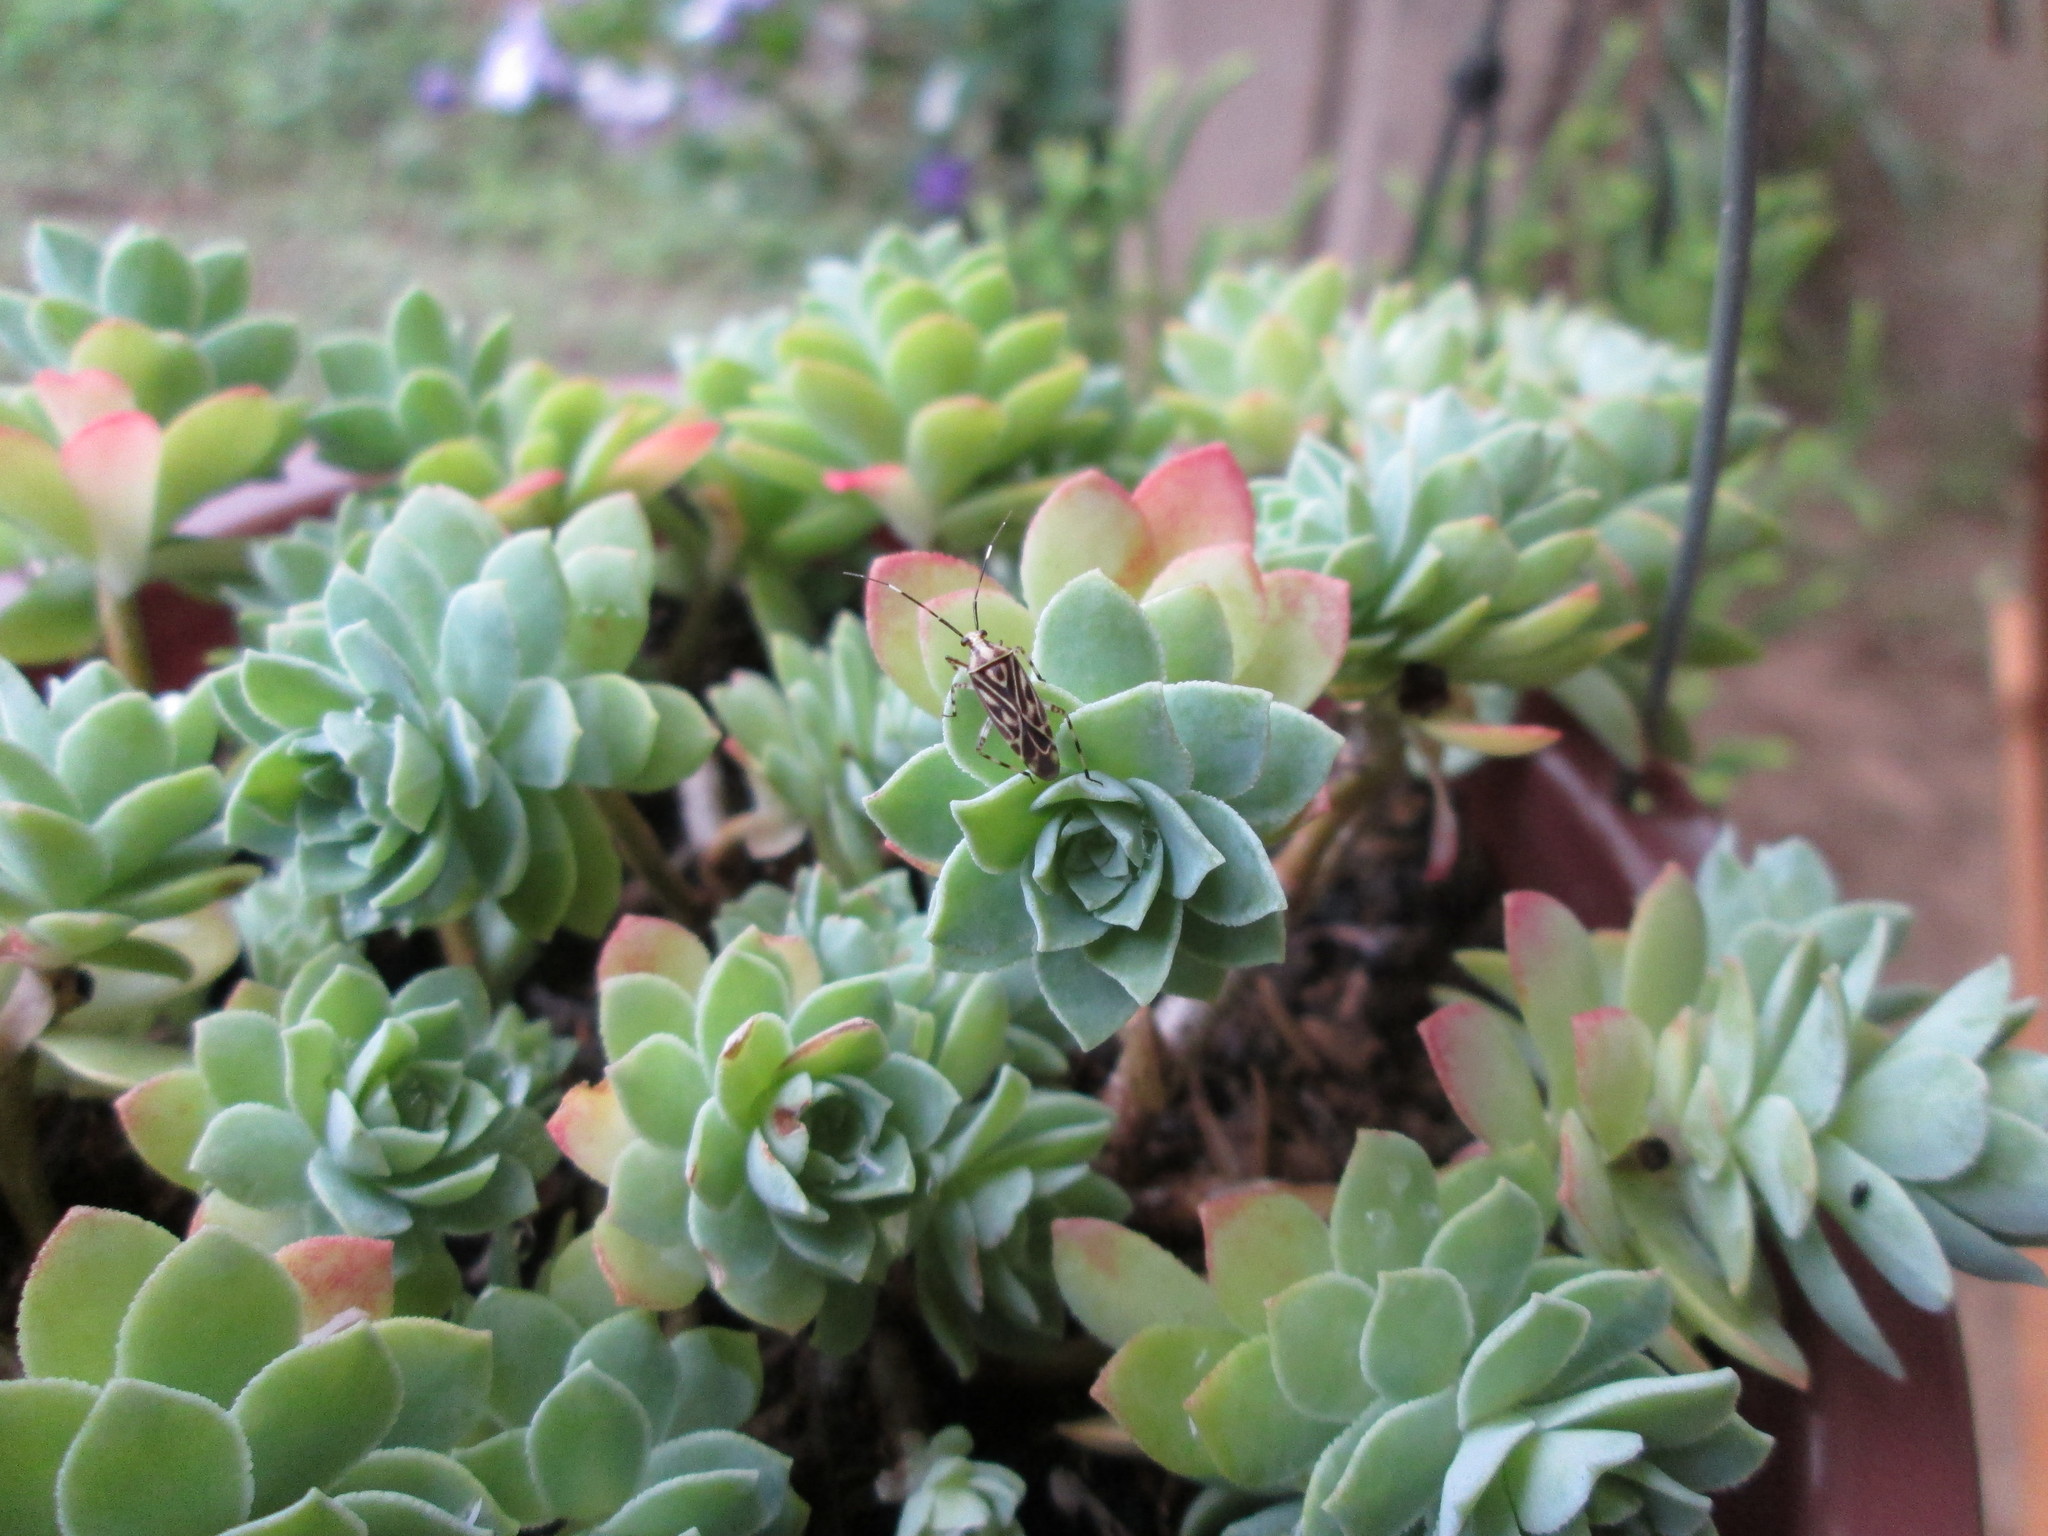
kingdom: Animalia
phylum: Arthropoda
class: Insecta
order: Hemiptera
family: Miridae
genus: Piasus
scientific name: Piasus cribricollis
